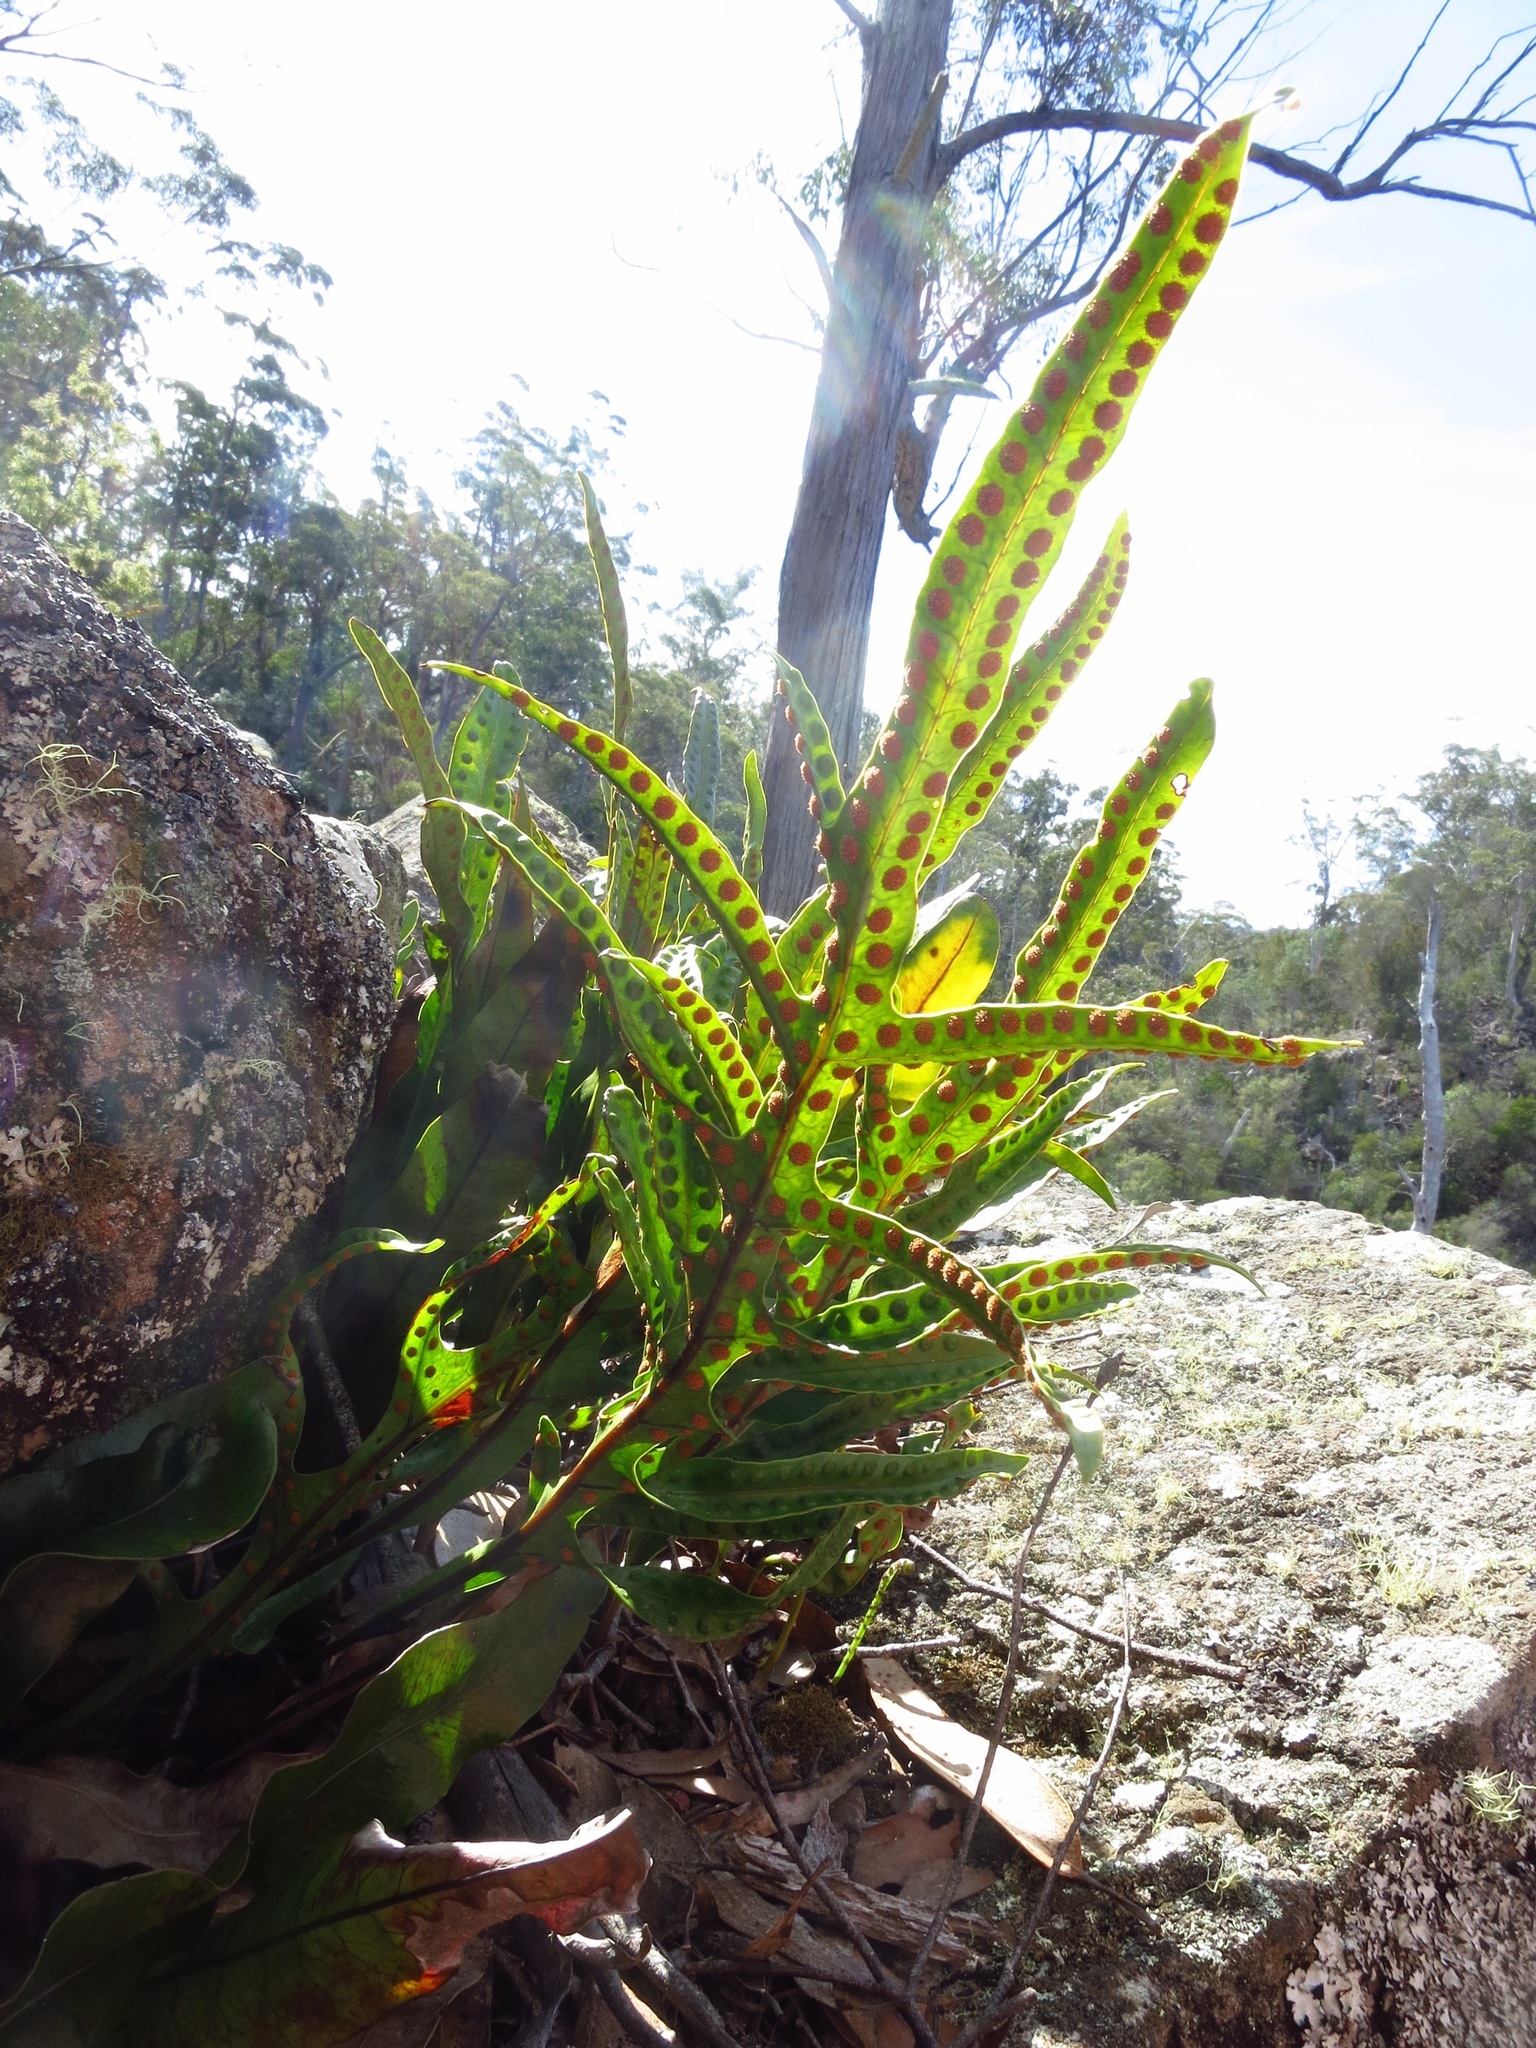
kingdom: Plantae
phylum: Tracheophyta
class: Polypodiopsida
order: Polypodiales
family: Polypodiaceae
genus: Lecanopteris
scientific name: Lecanopteris pustulata
